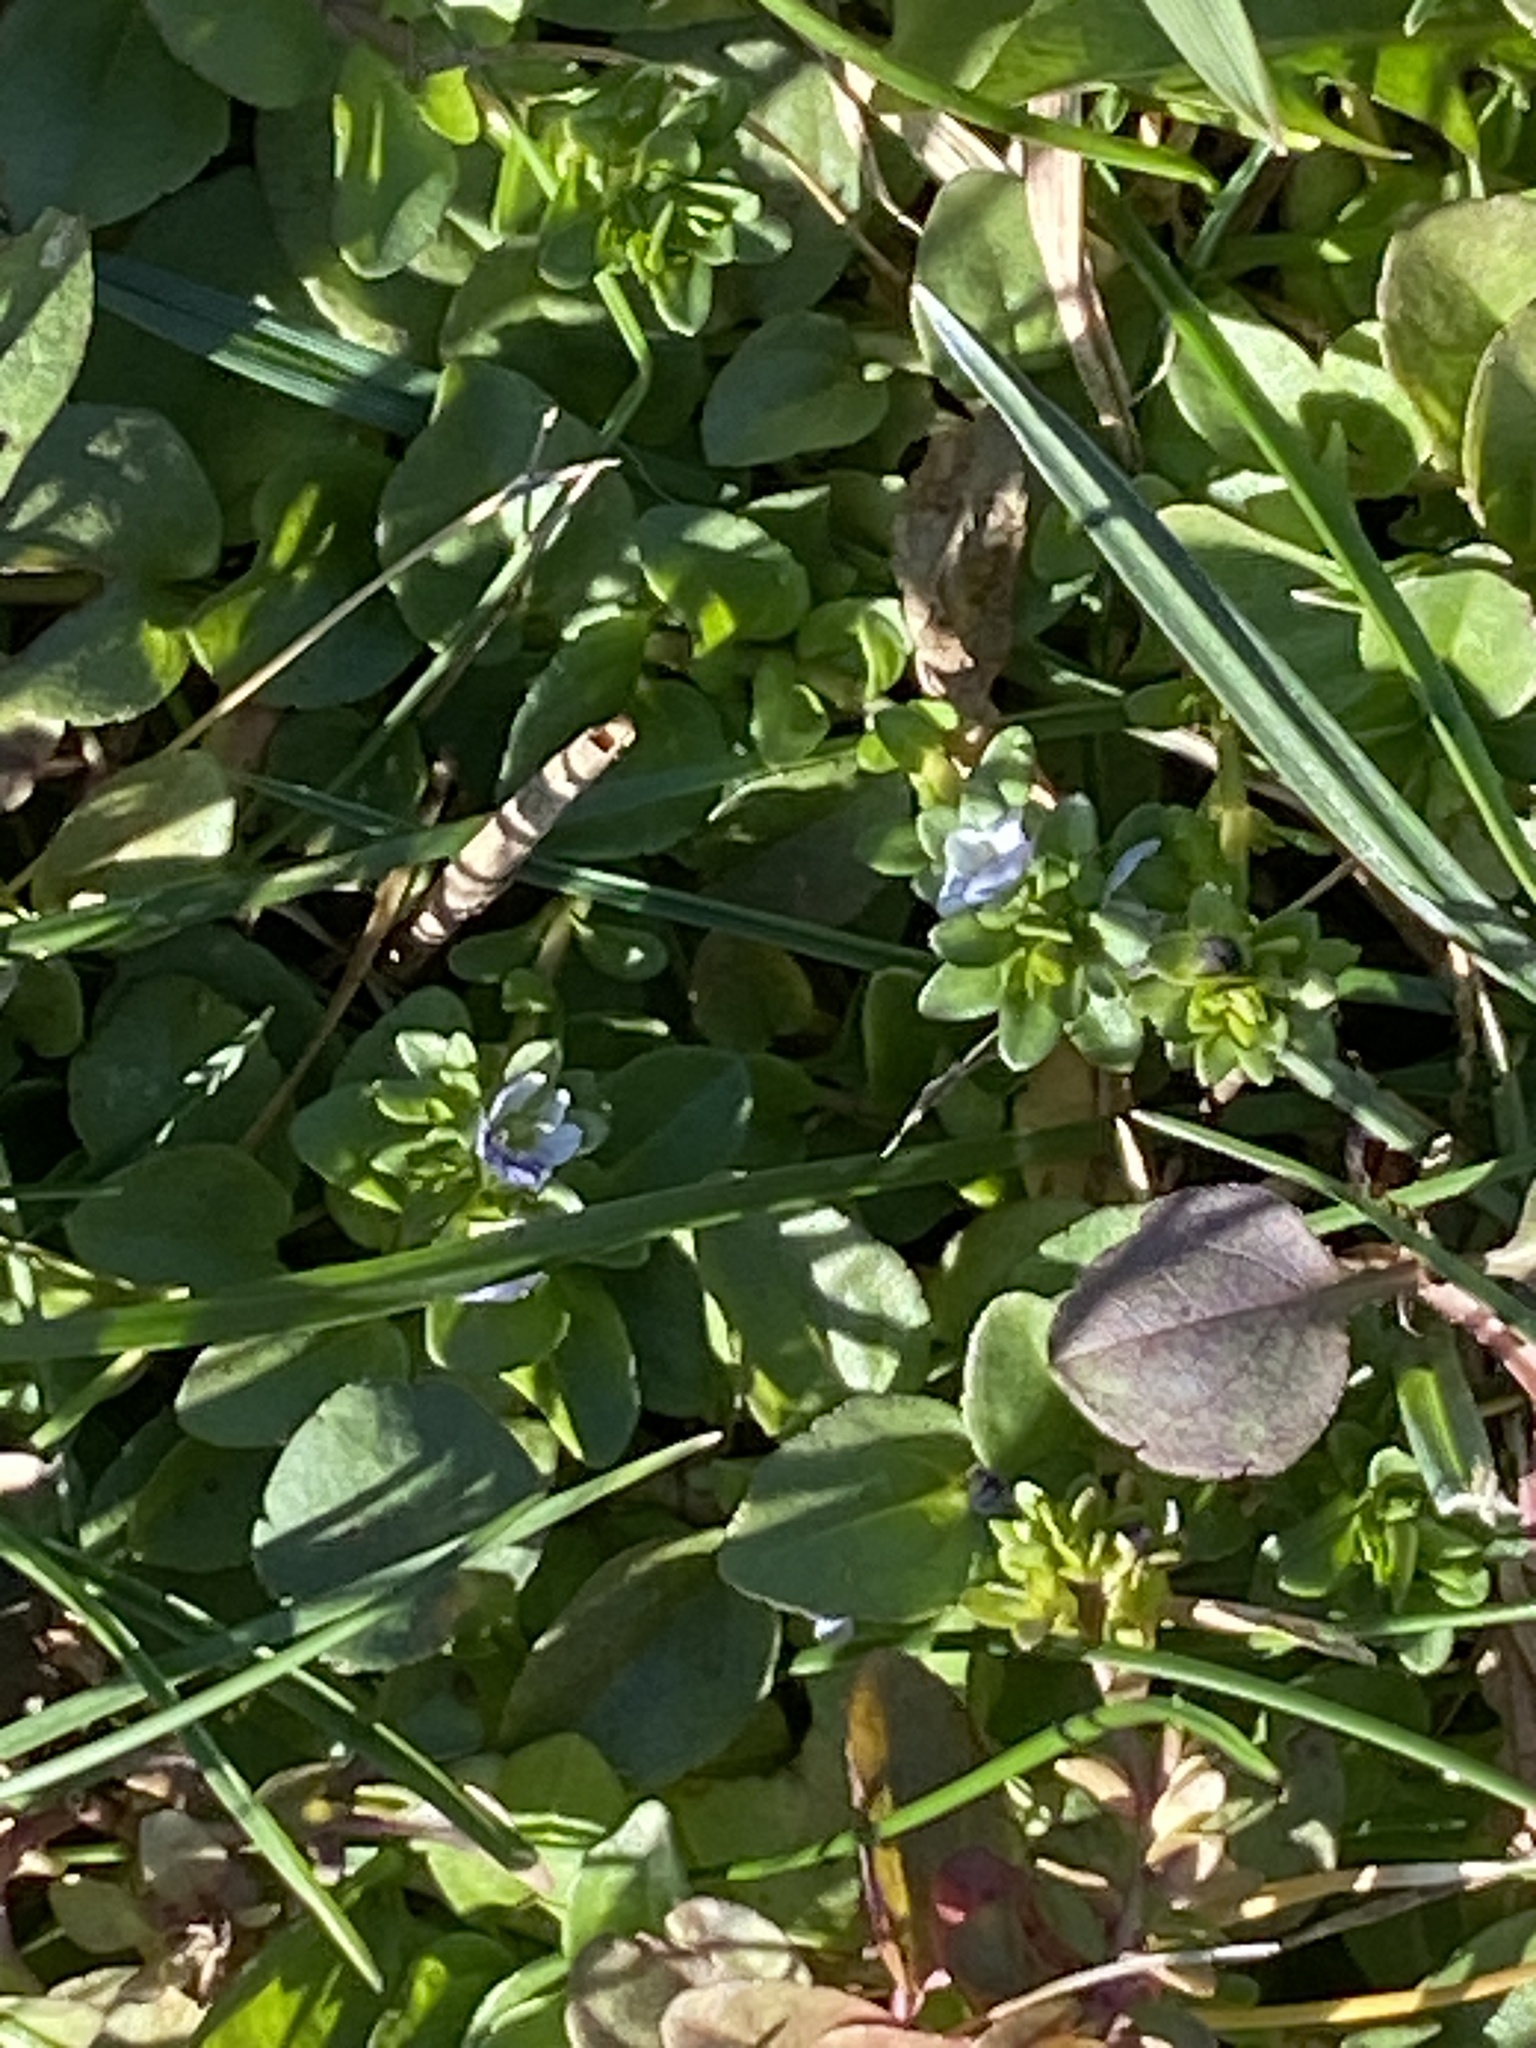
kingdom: Plantae
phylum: Tracheophyta
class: Magnoliopsida
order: Lamiales
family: Plantaginaceae
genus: Veronica
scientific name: Veronica serpyllifolia
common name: Thyme-leaved speedwell
